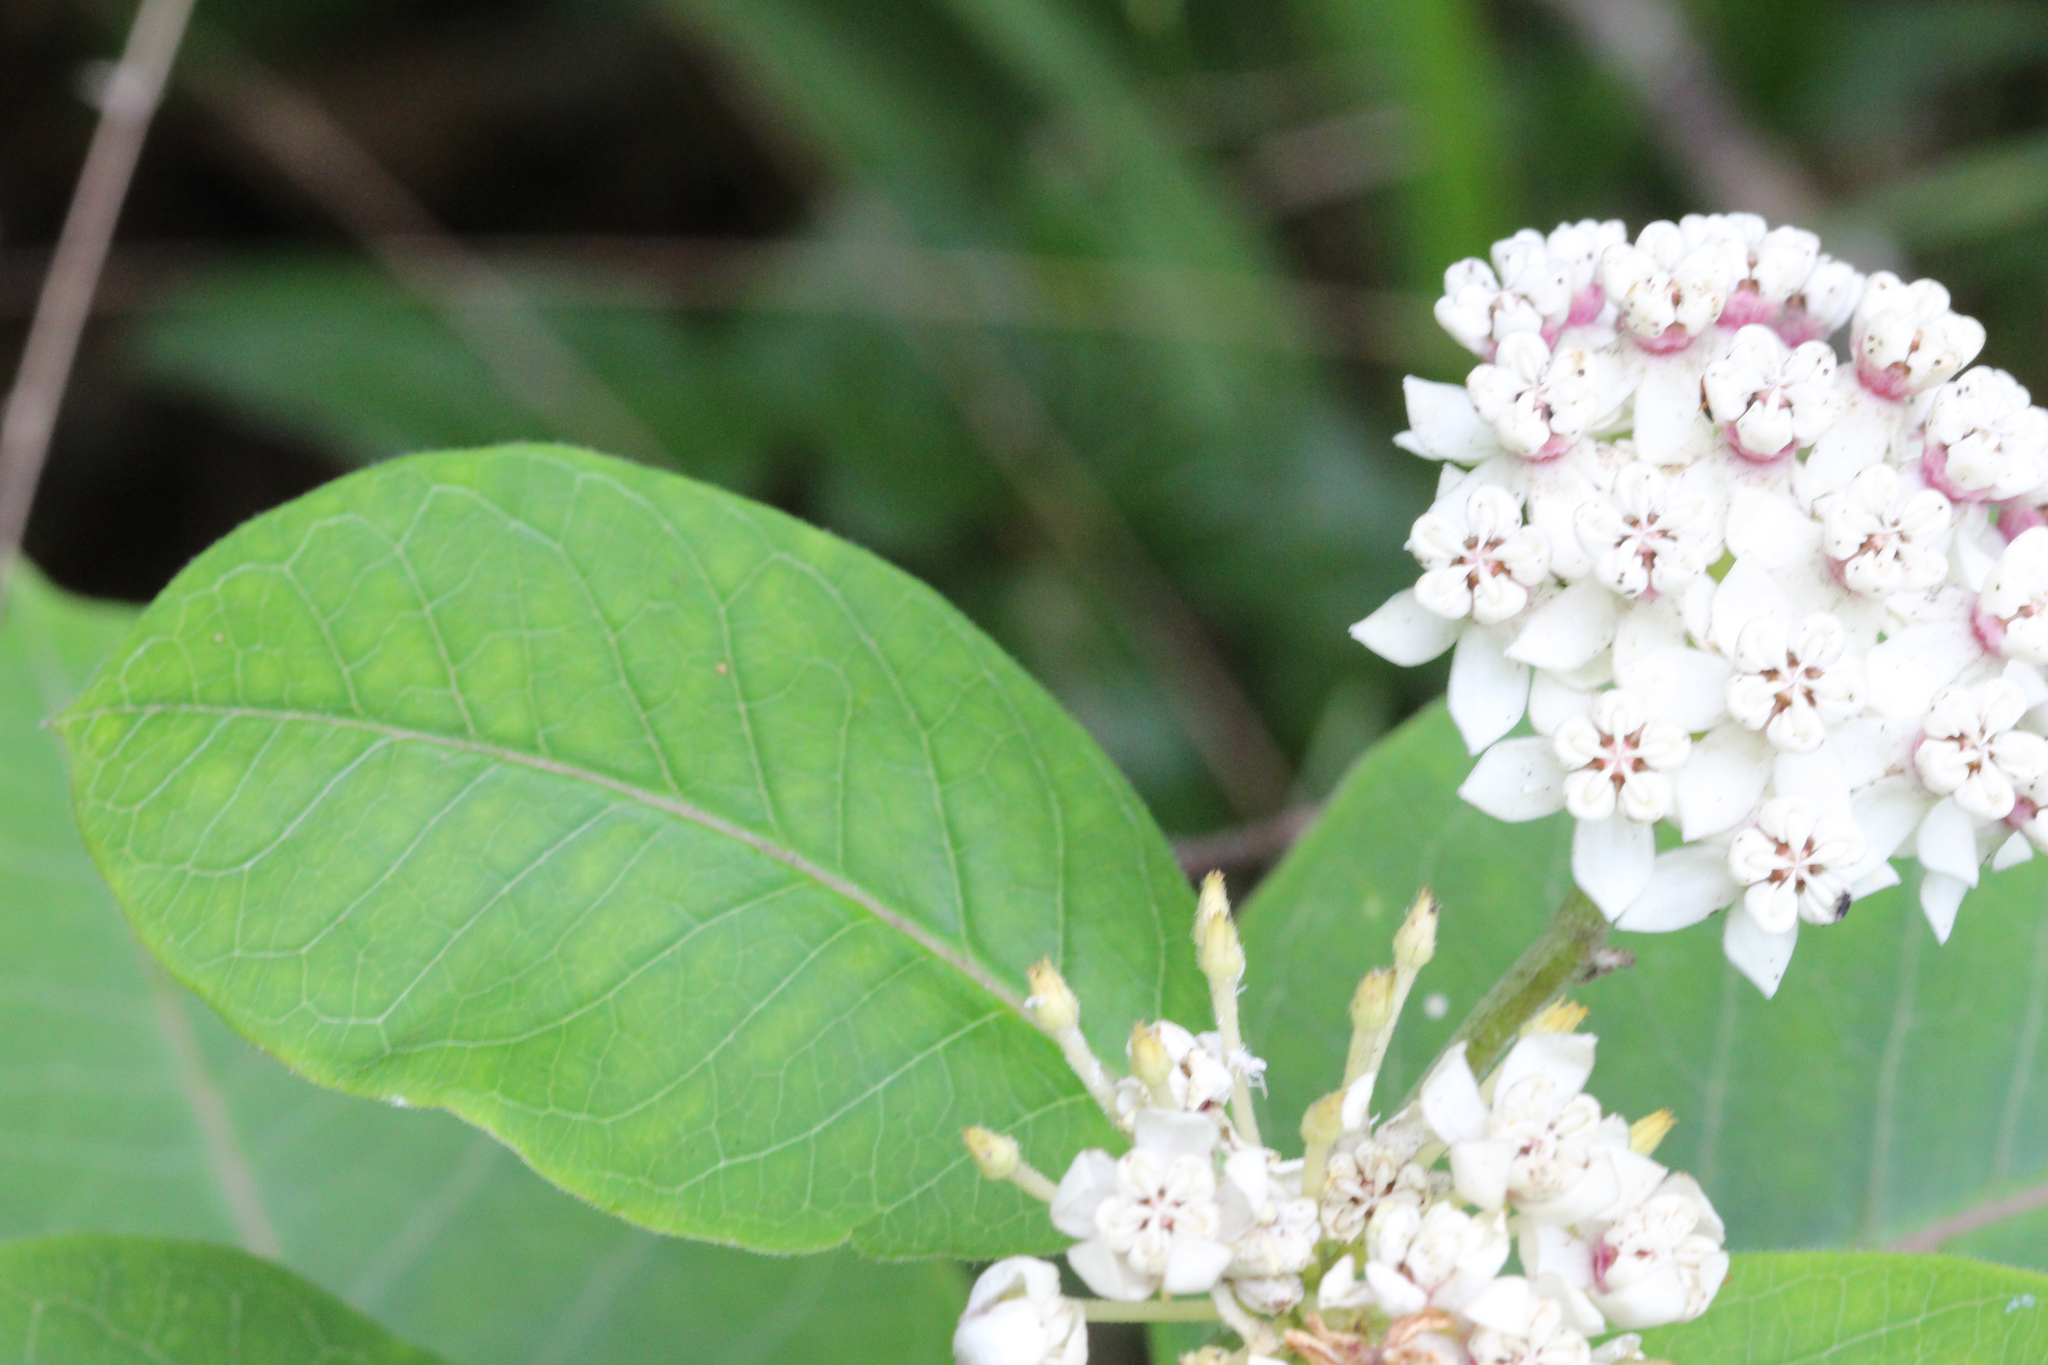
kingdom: Plantae
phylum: Tracheophyta
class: Magnoliopsida
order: Gentianales
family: Apocynaceae
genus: Asclepias
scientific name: Asclepias variegata
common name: Variegated milkweed
